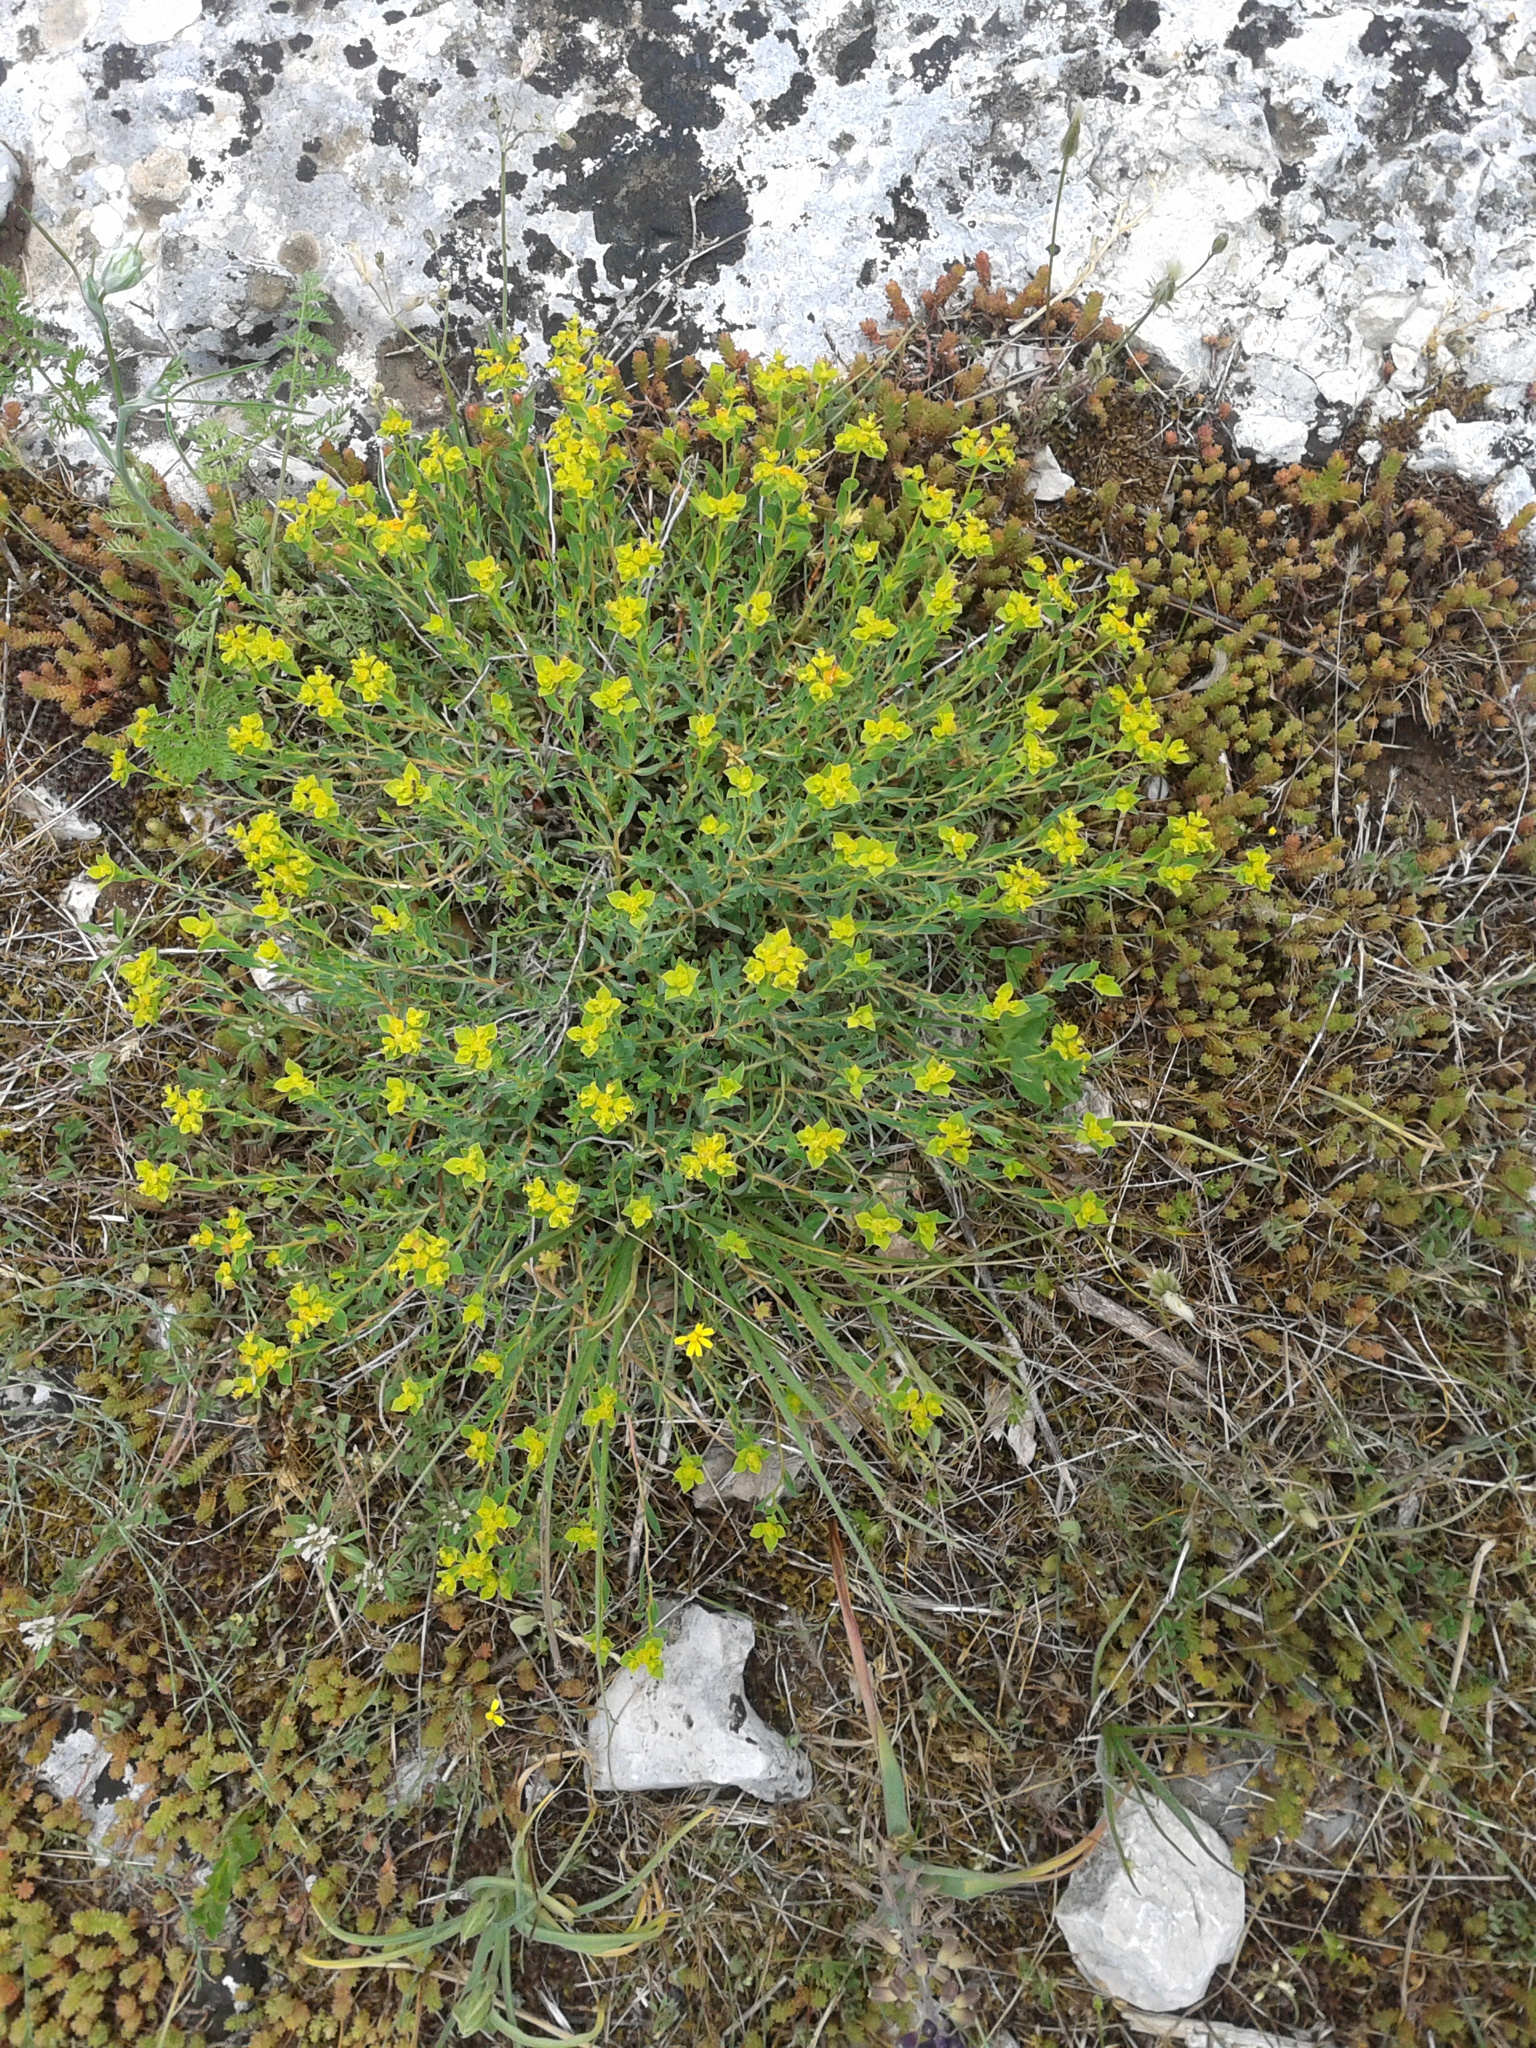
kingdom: Plantae
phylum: Tracheophyta
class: Magnoliopsida
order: Malpighiales
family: Euphorbiaceae
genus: Euphorbia
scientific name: Euphorbia spinosa
